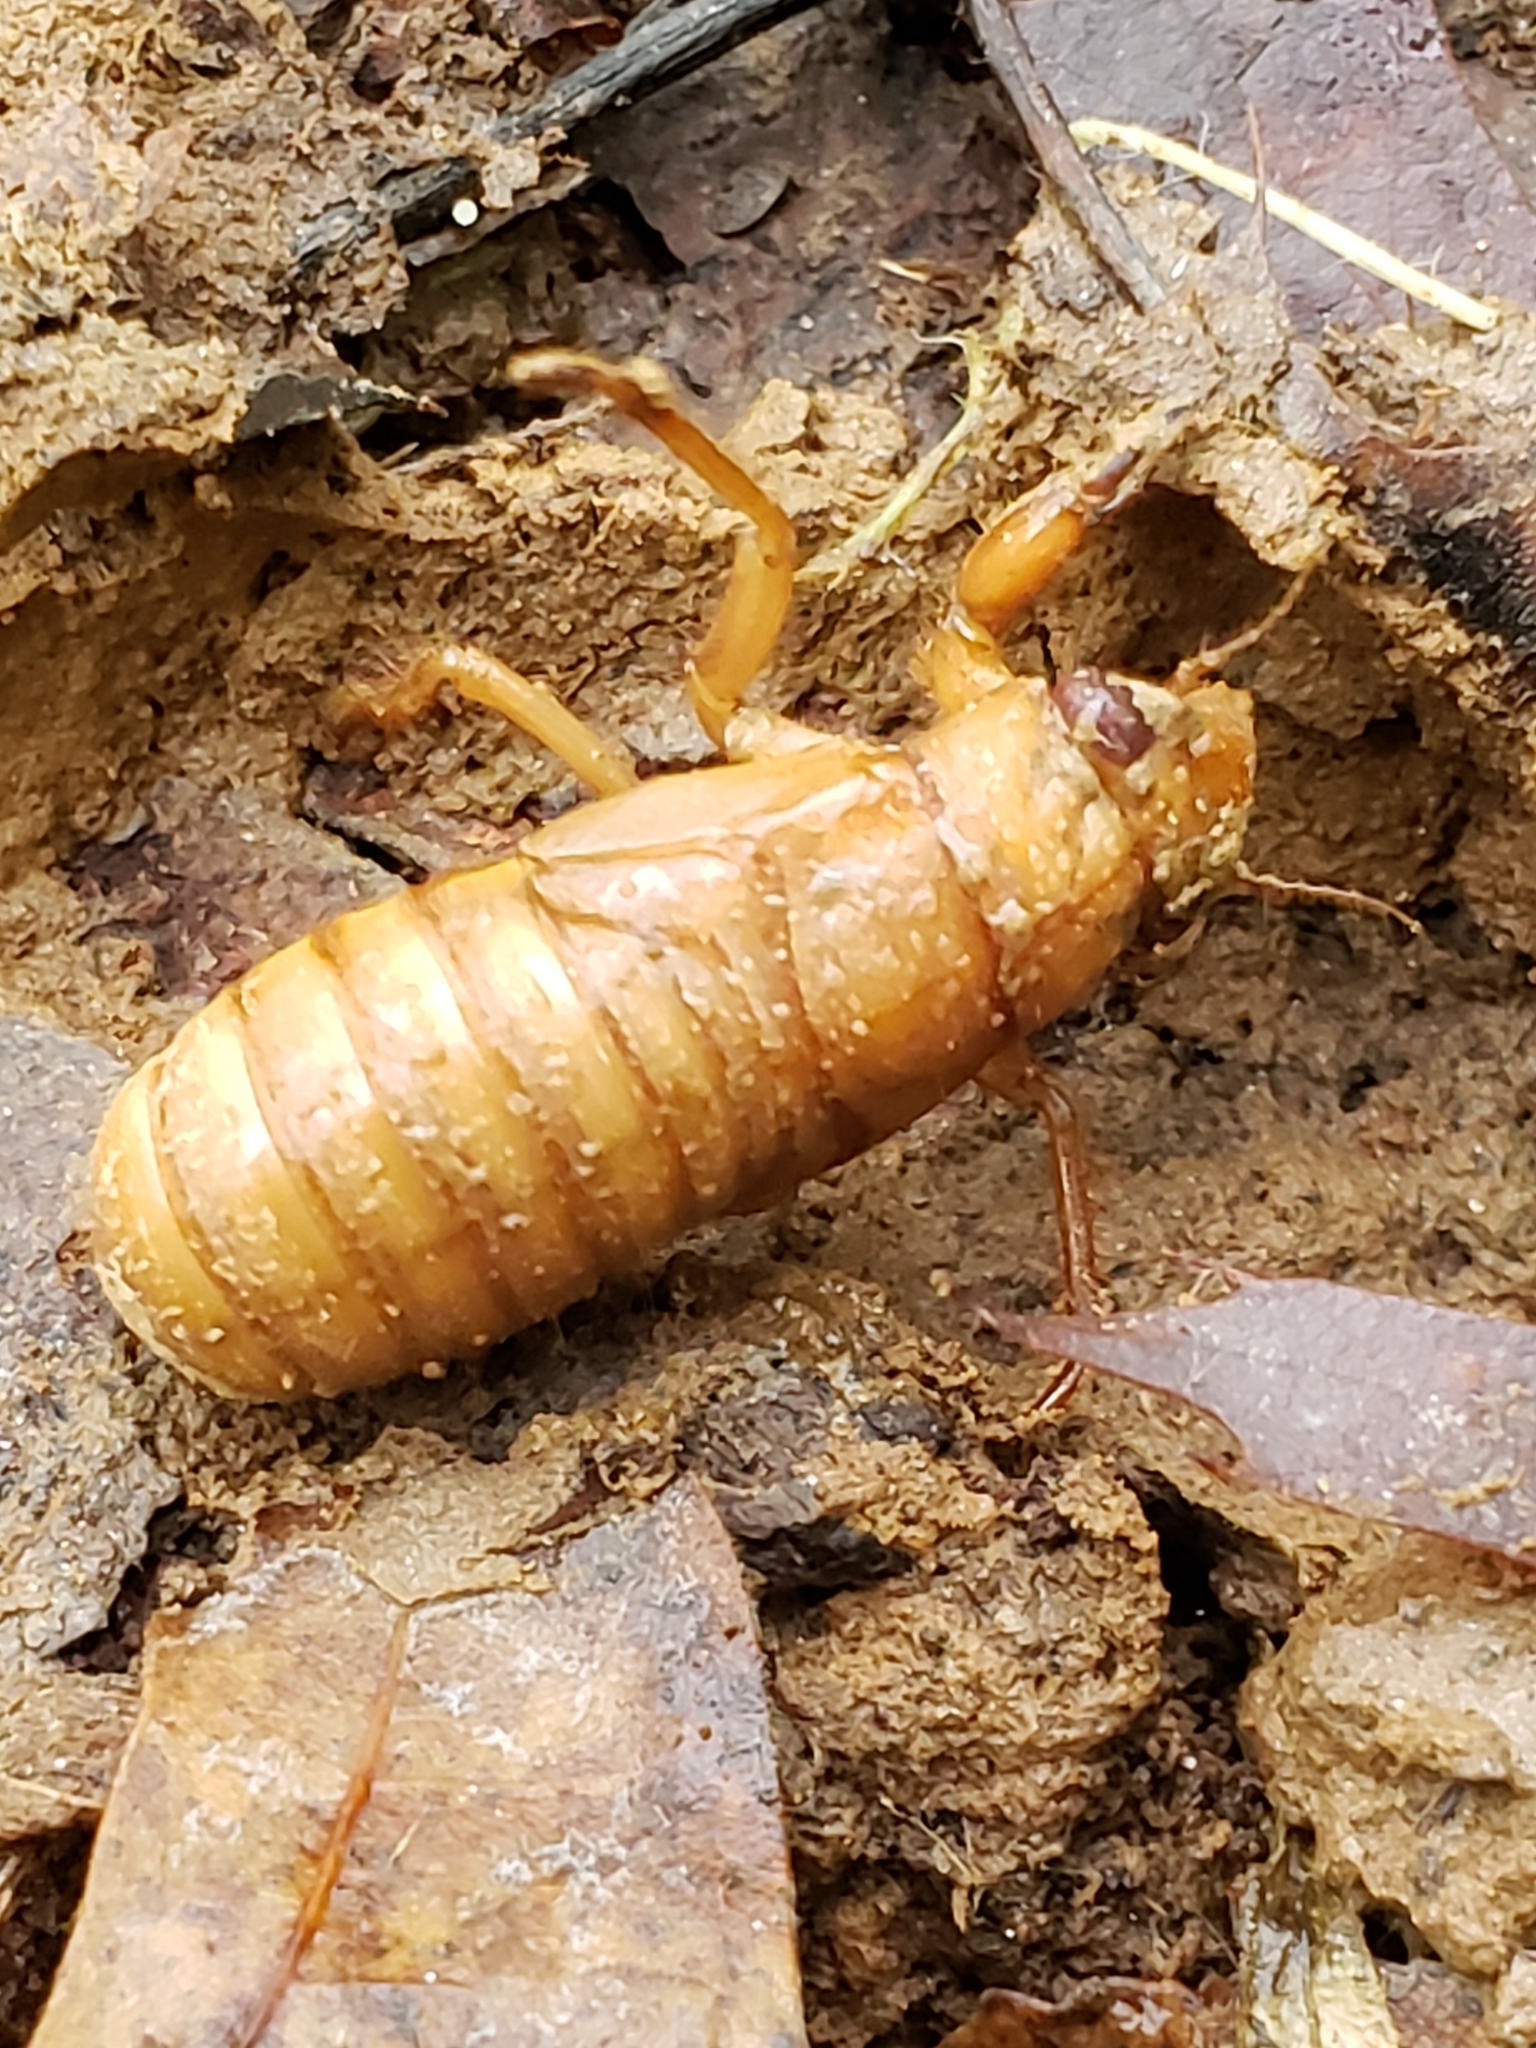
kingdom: Animalia
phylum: Arthropoda
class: Insecta
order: Hemiptera
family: Cicadidae
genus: Magicicada
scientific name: Magicicada
